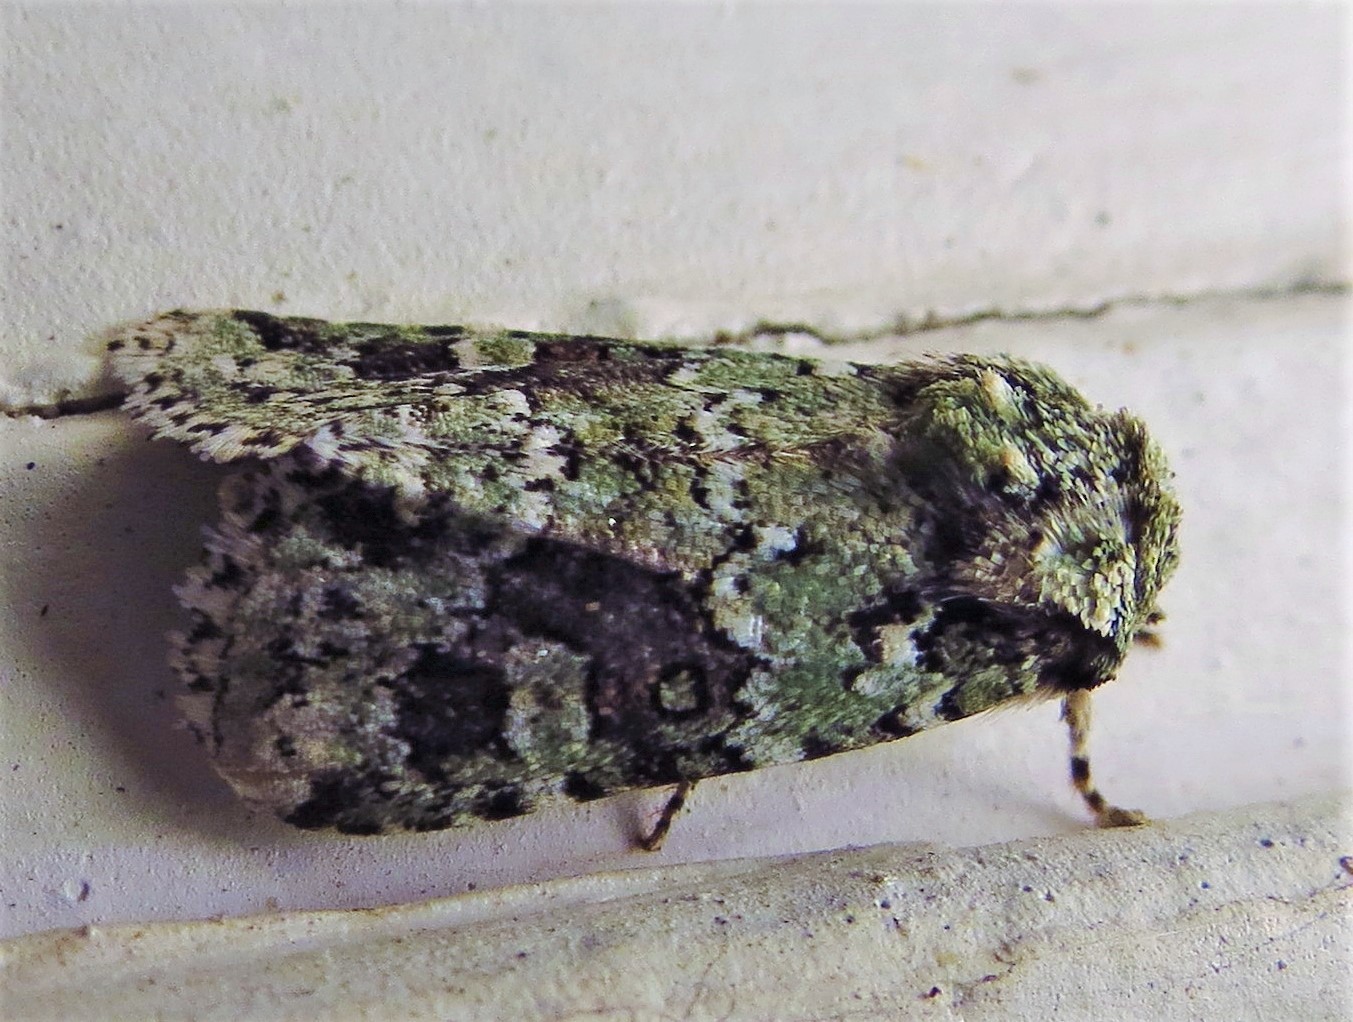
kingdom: Animalia
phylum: Arthropoda
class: Insecta
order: Lepidoptera
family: Noctuidae
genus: Lacinipolia
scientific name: Lacinipolia laudabilis
